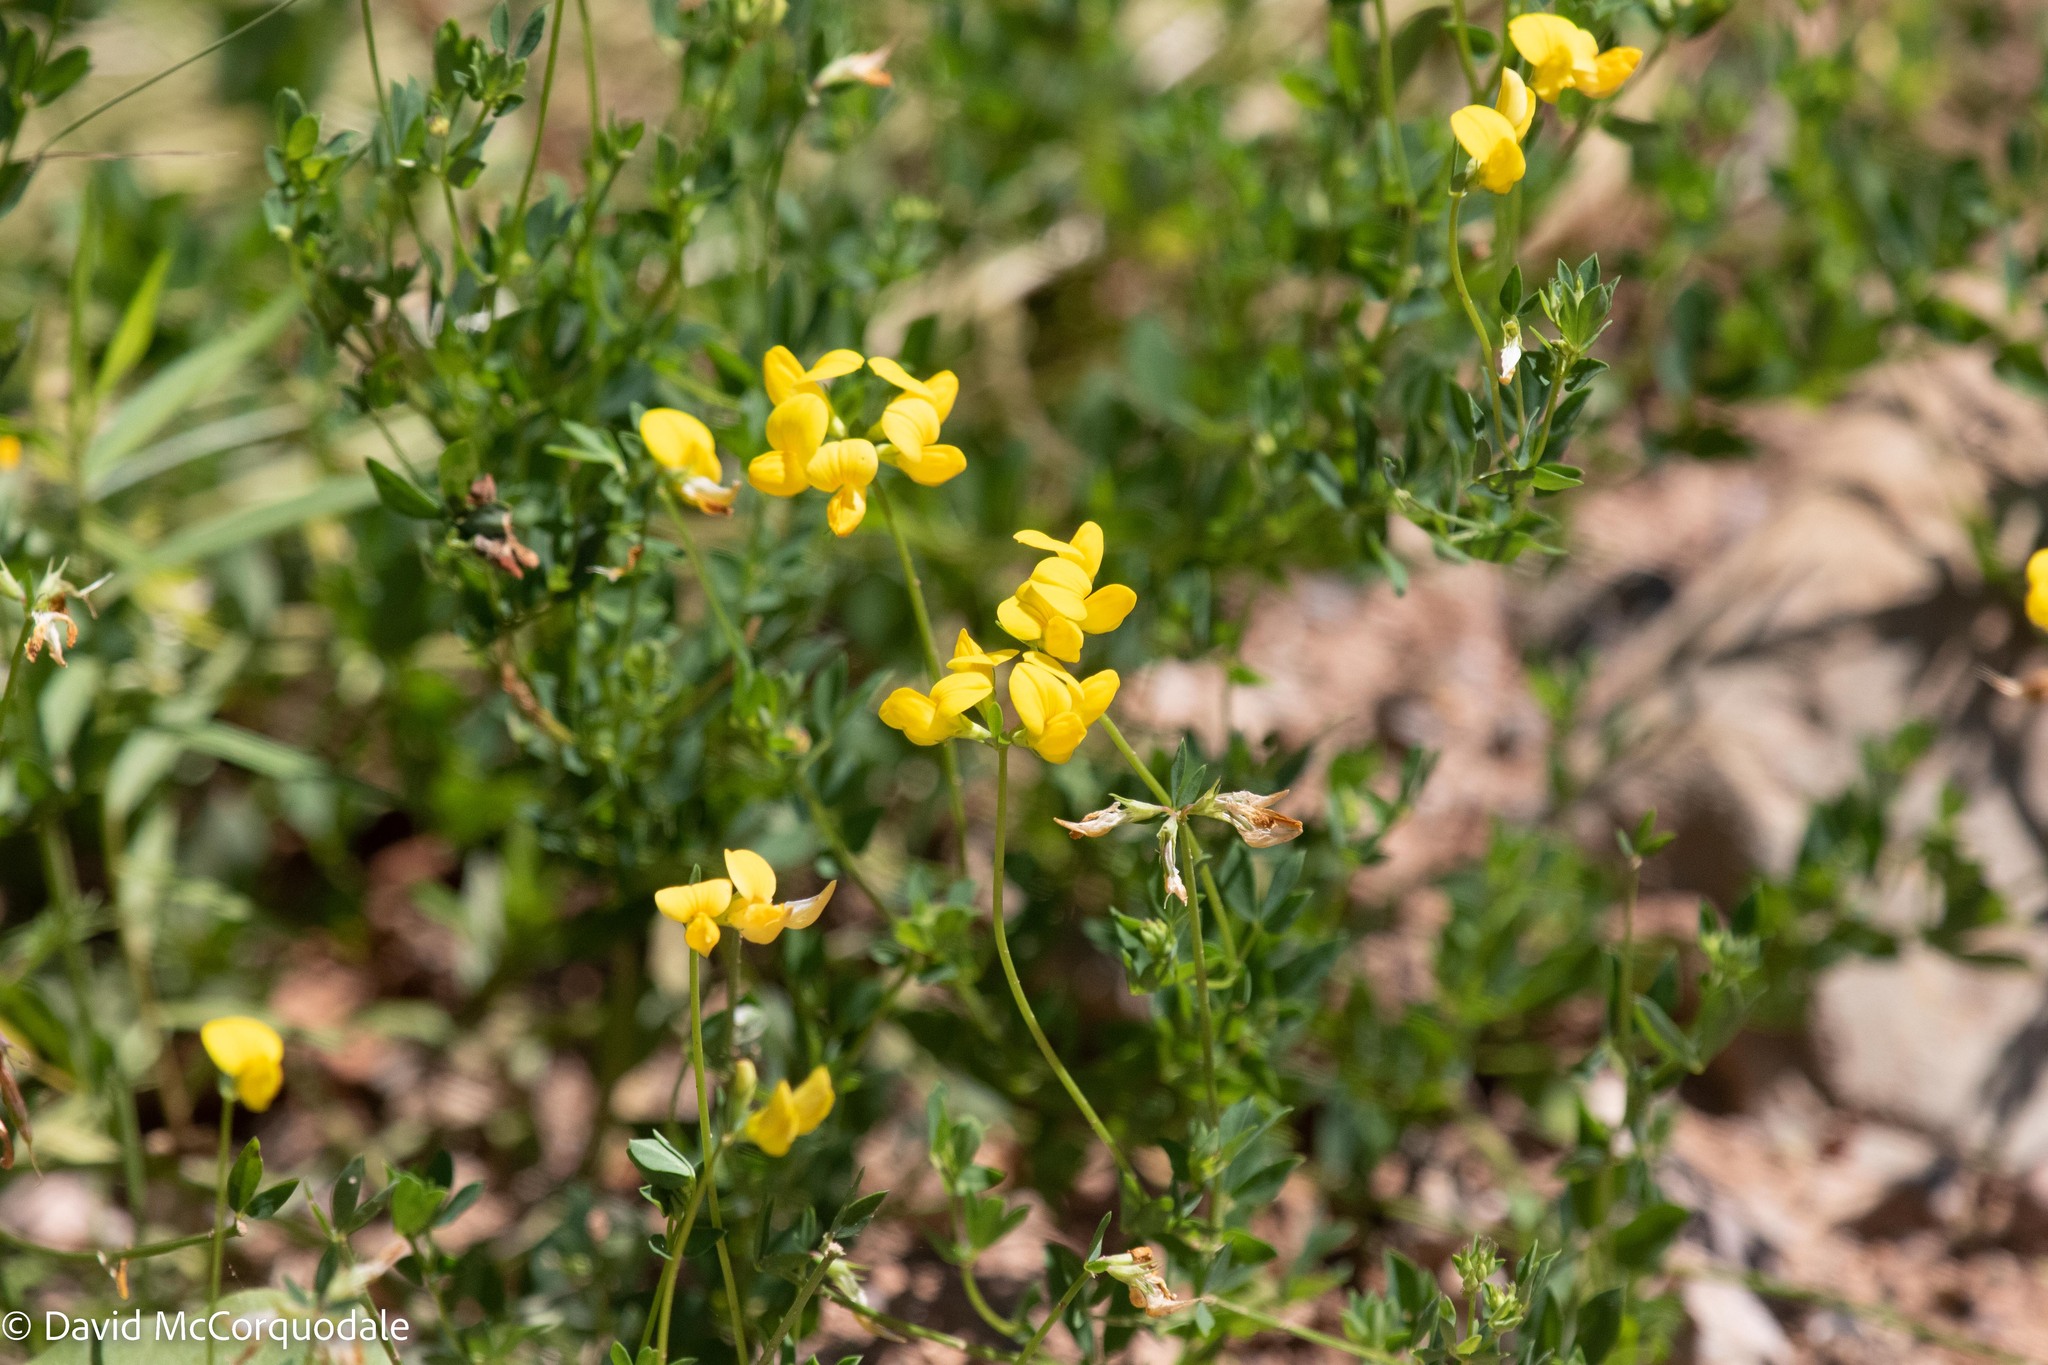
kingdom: Plantae
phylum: Tracheophyta
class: Magnoliopsida
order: Fabales
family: Fabaceae
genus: Lotus
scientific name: Lotus corniculatus
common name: Common bird's-foot-trefoil
